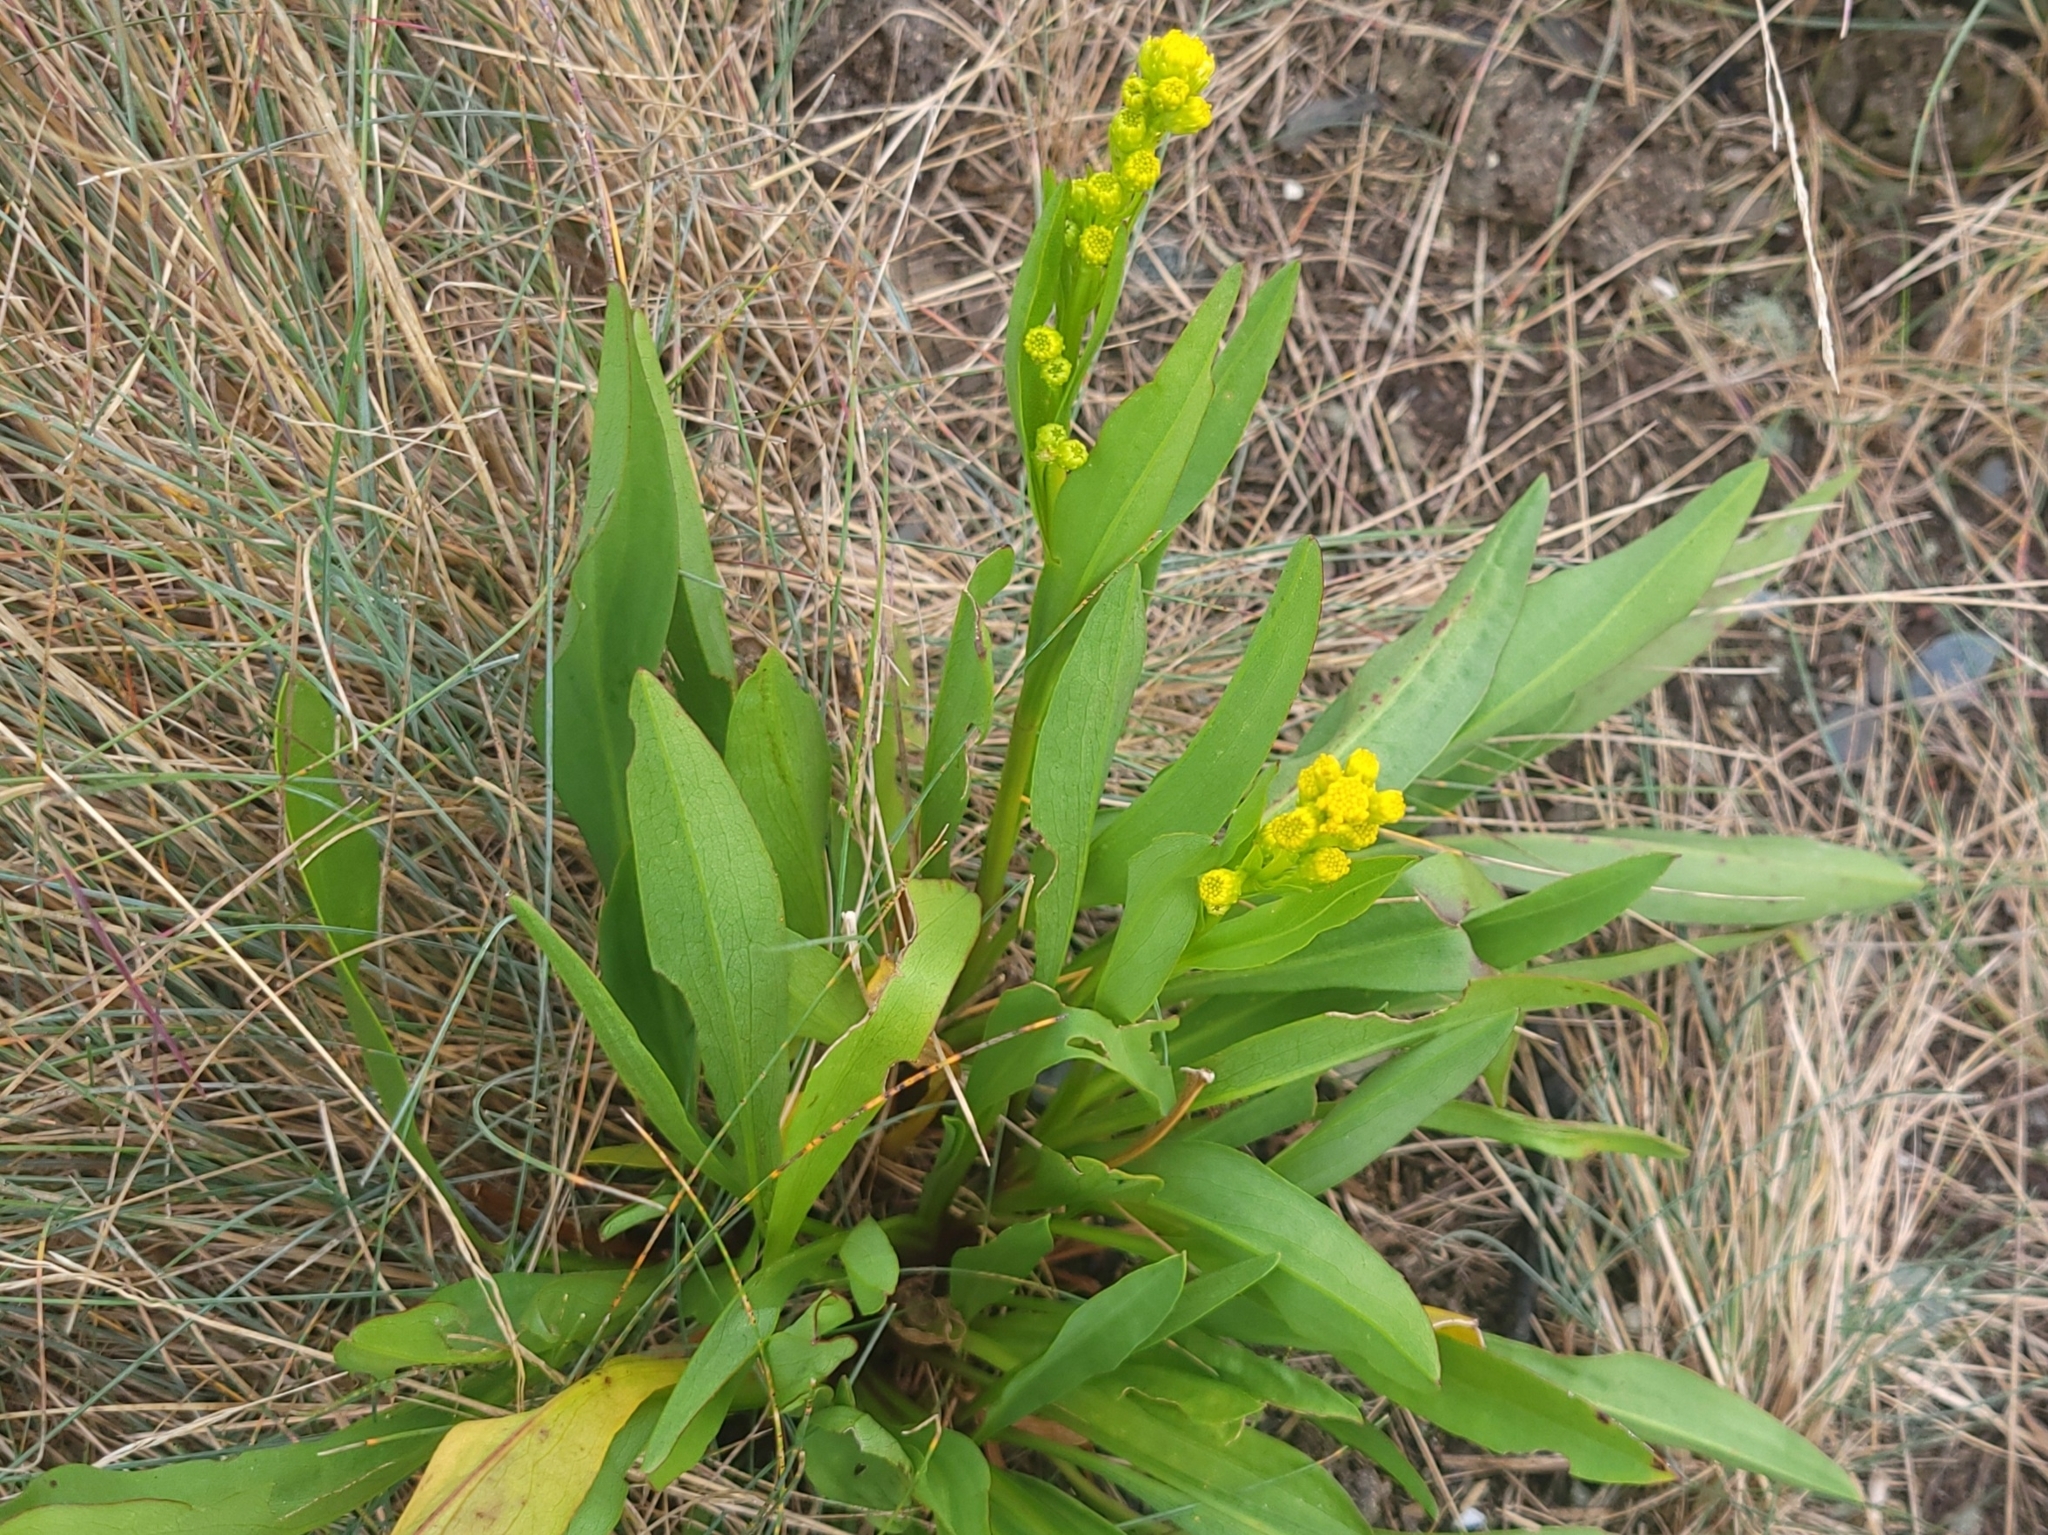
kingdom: Plantae
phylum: Tracheophyta
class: Magnoliopsida
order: Asterales
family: Asteraceae
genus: Solidago
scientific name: Solidago sempervirens
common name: Salt-marsh goldenrod
